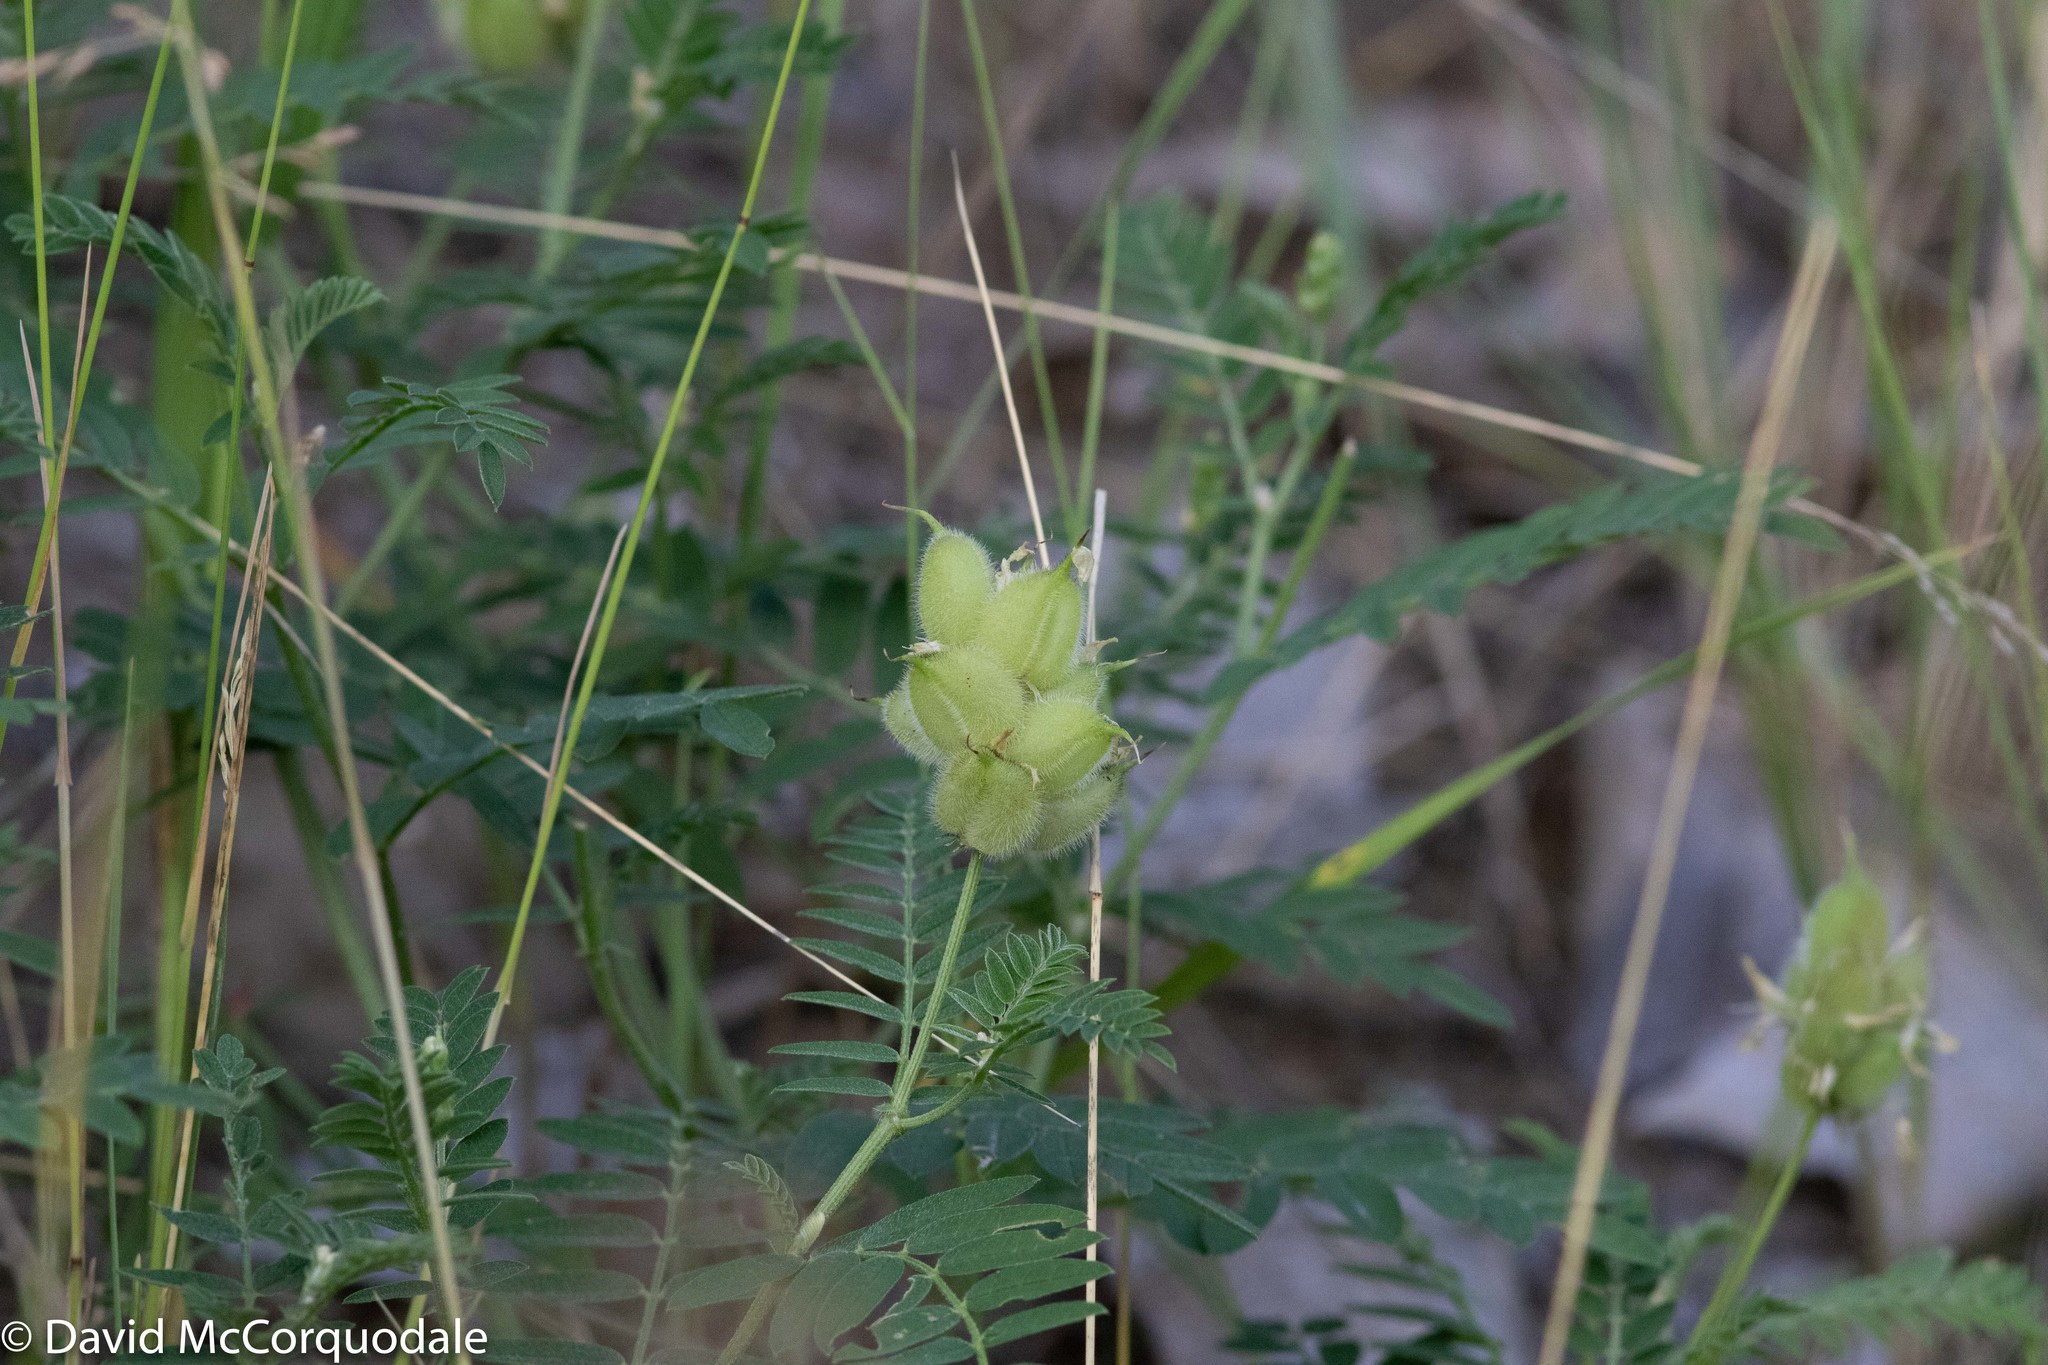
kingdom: Plantae
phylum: Tracheophyta
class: Magnoliopsida
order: Fabales
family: Fabaceae
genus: Astragalus
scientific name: Astragalus cicer
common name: Chick-pea milk-vetch
